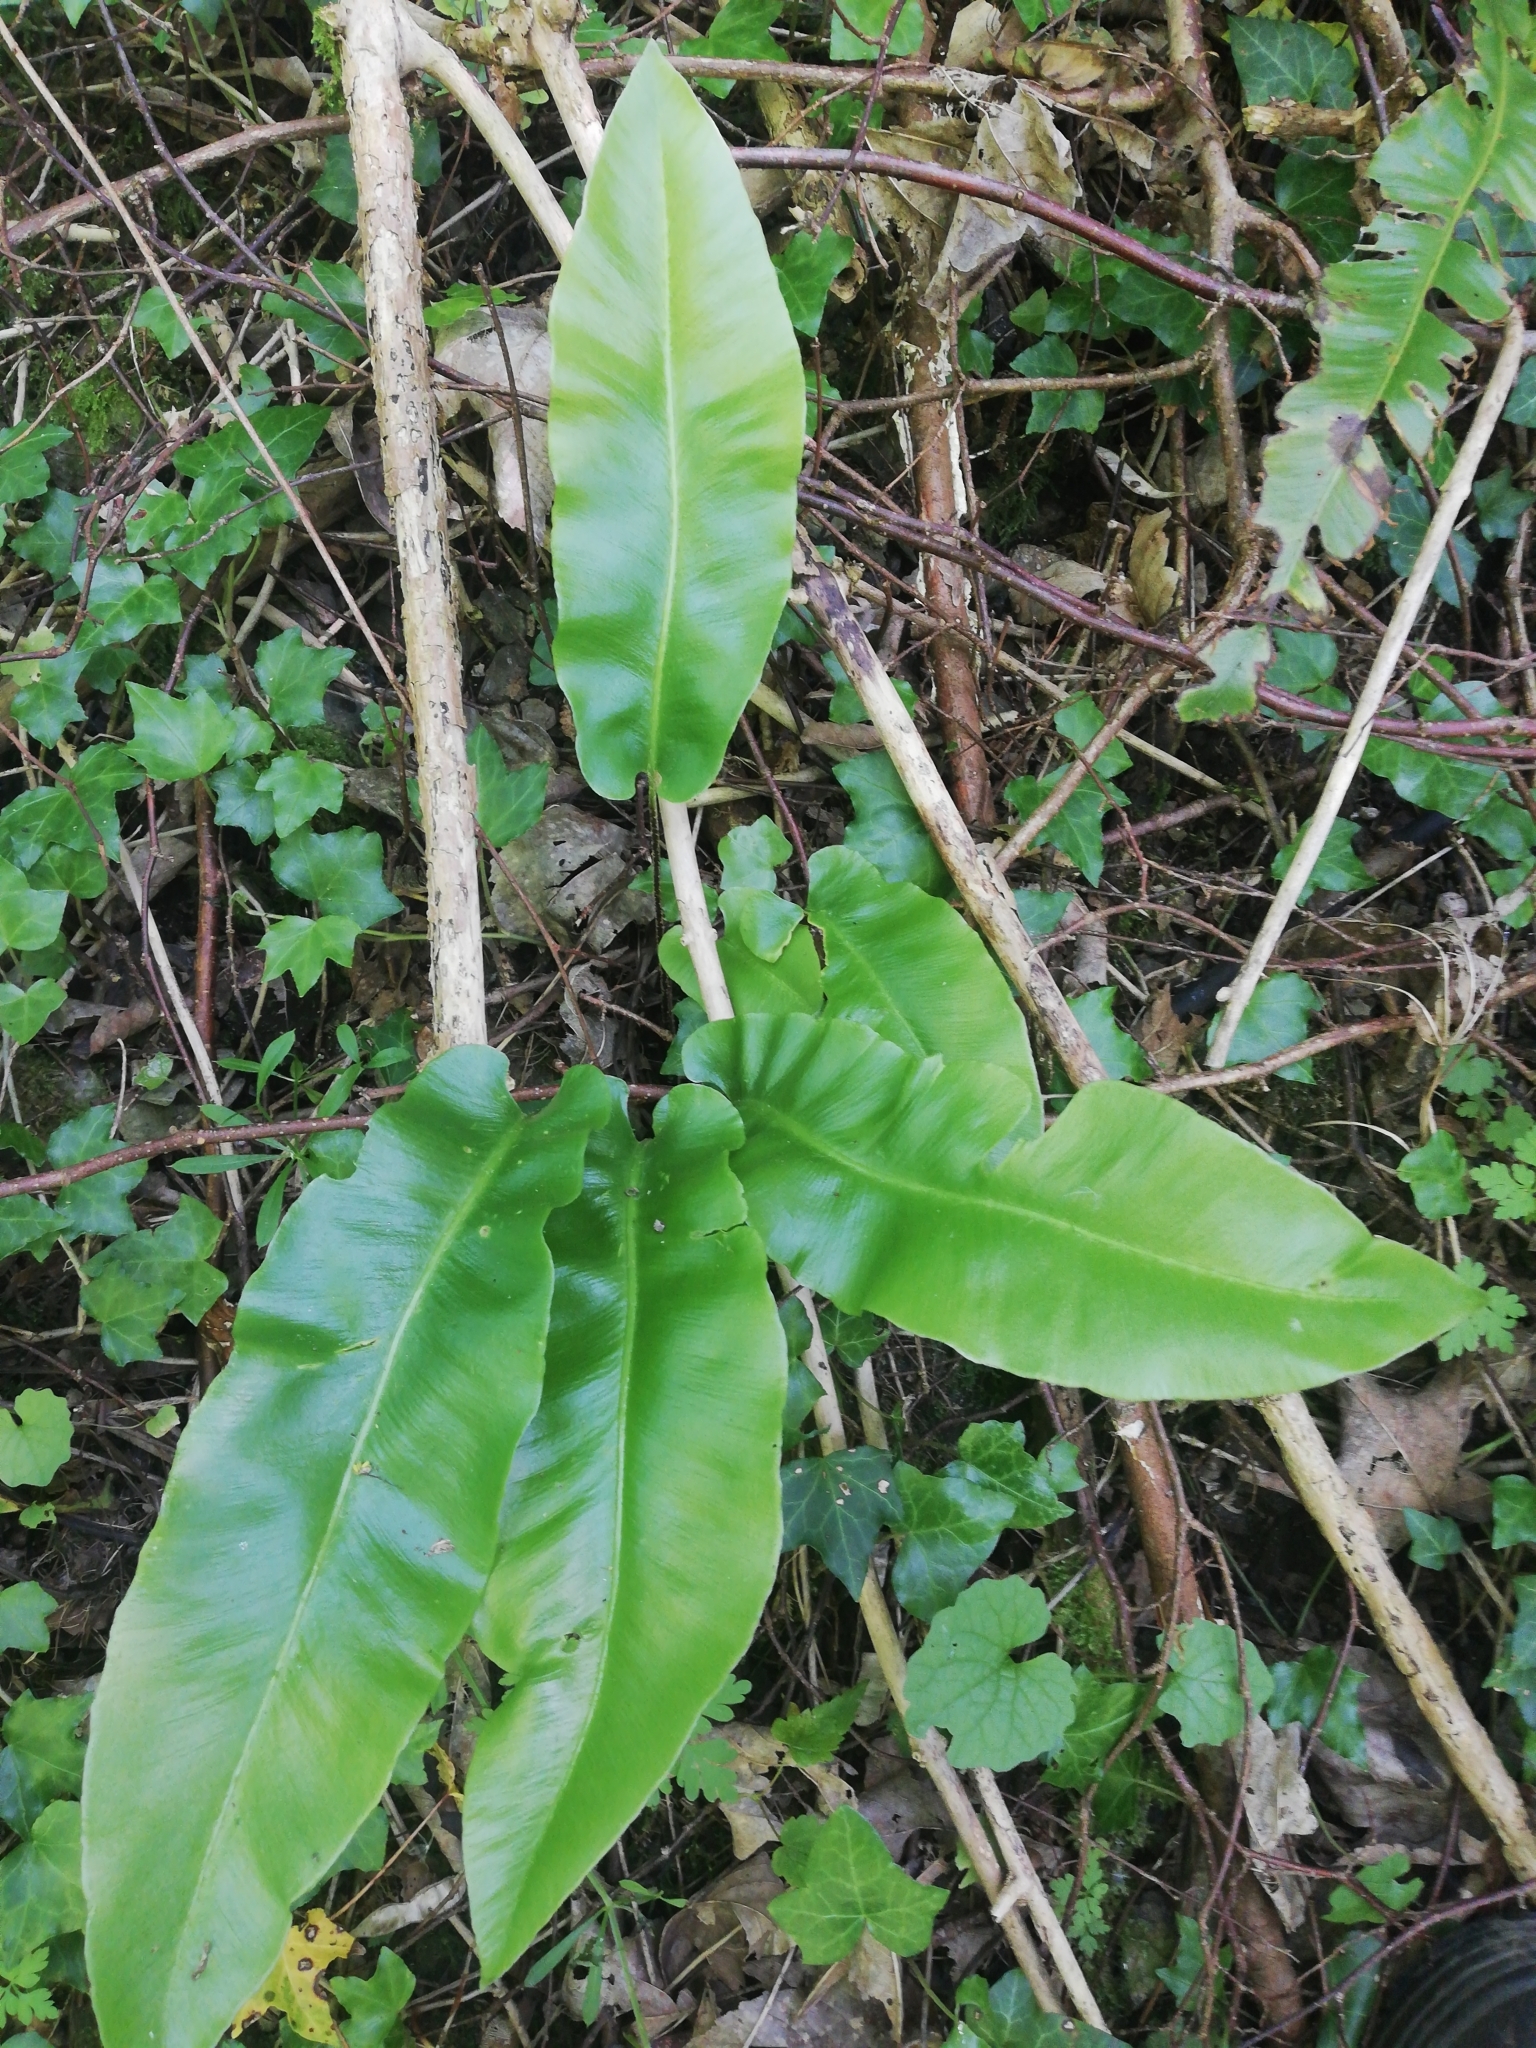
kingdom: Plantae
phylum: Tracheophyta
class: Polypodiopsida
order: Polypodiales
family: Aspleniaceae
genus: Asplenium
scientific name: Asplenium scolopendrium
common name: Hart's-tongue fern
